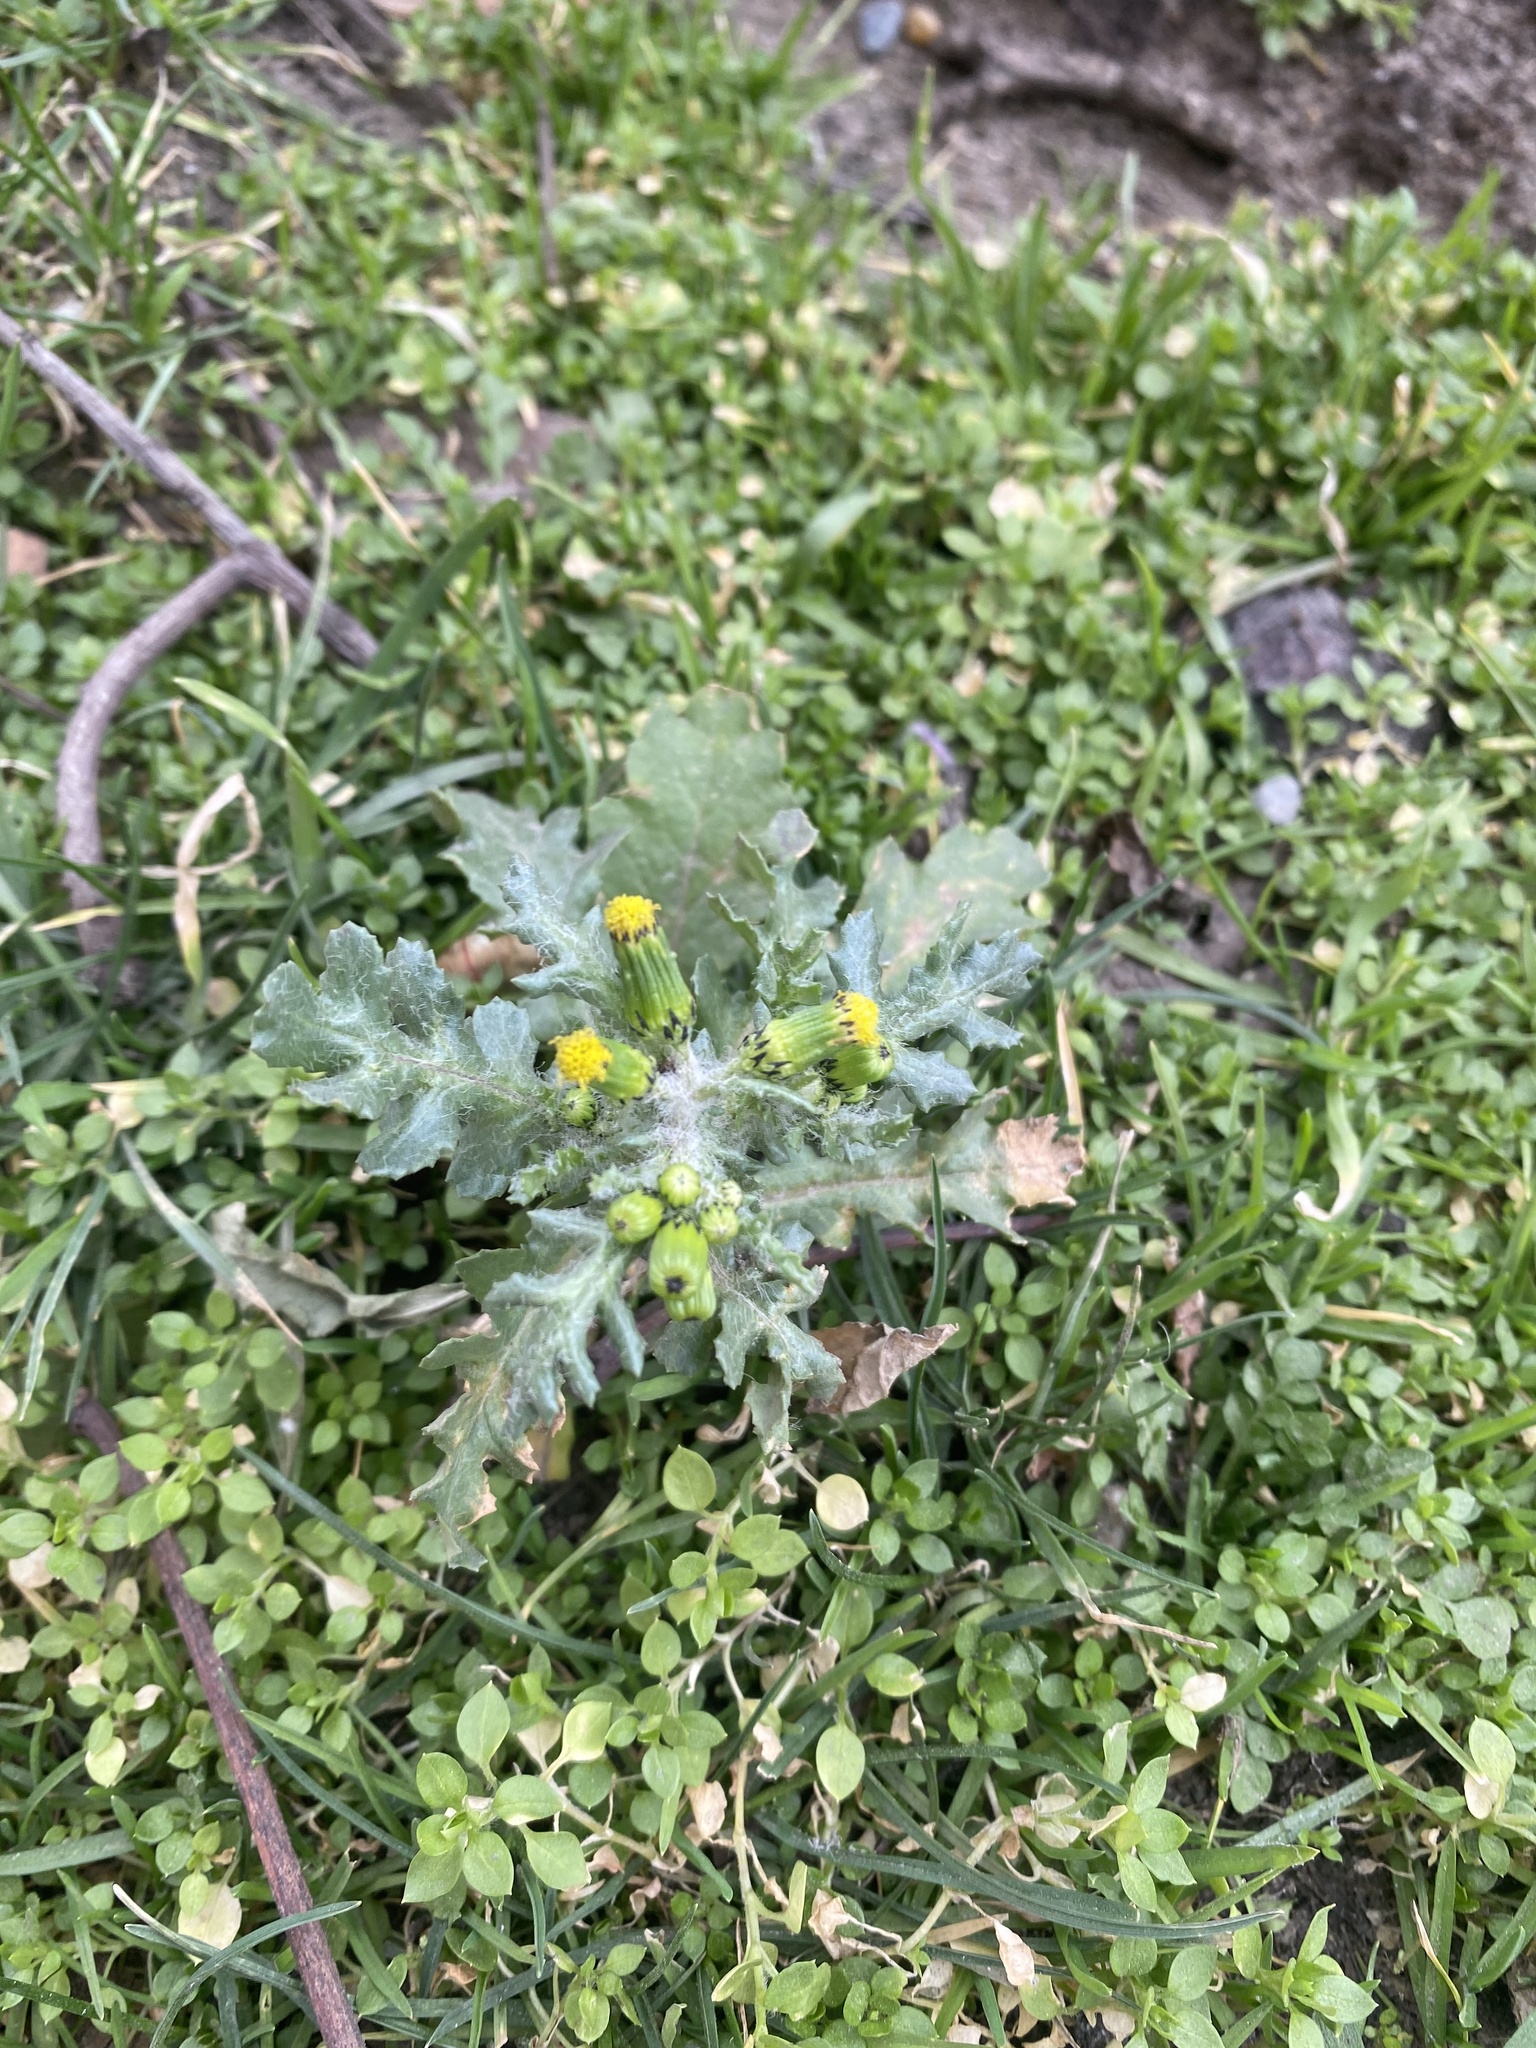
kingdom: Plantae
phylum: Tracheophyta
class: Magnoliopsida
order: Asterales
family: Asteraceae
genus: Senecio
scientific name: Senecio vulgaris
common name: Old-man-in-the-spring
